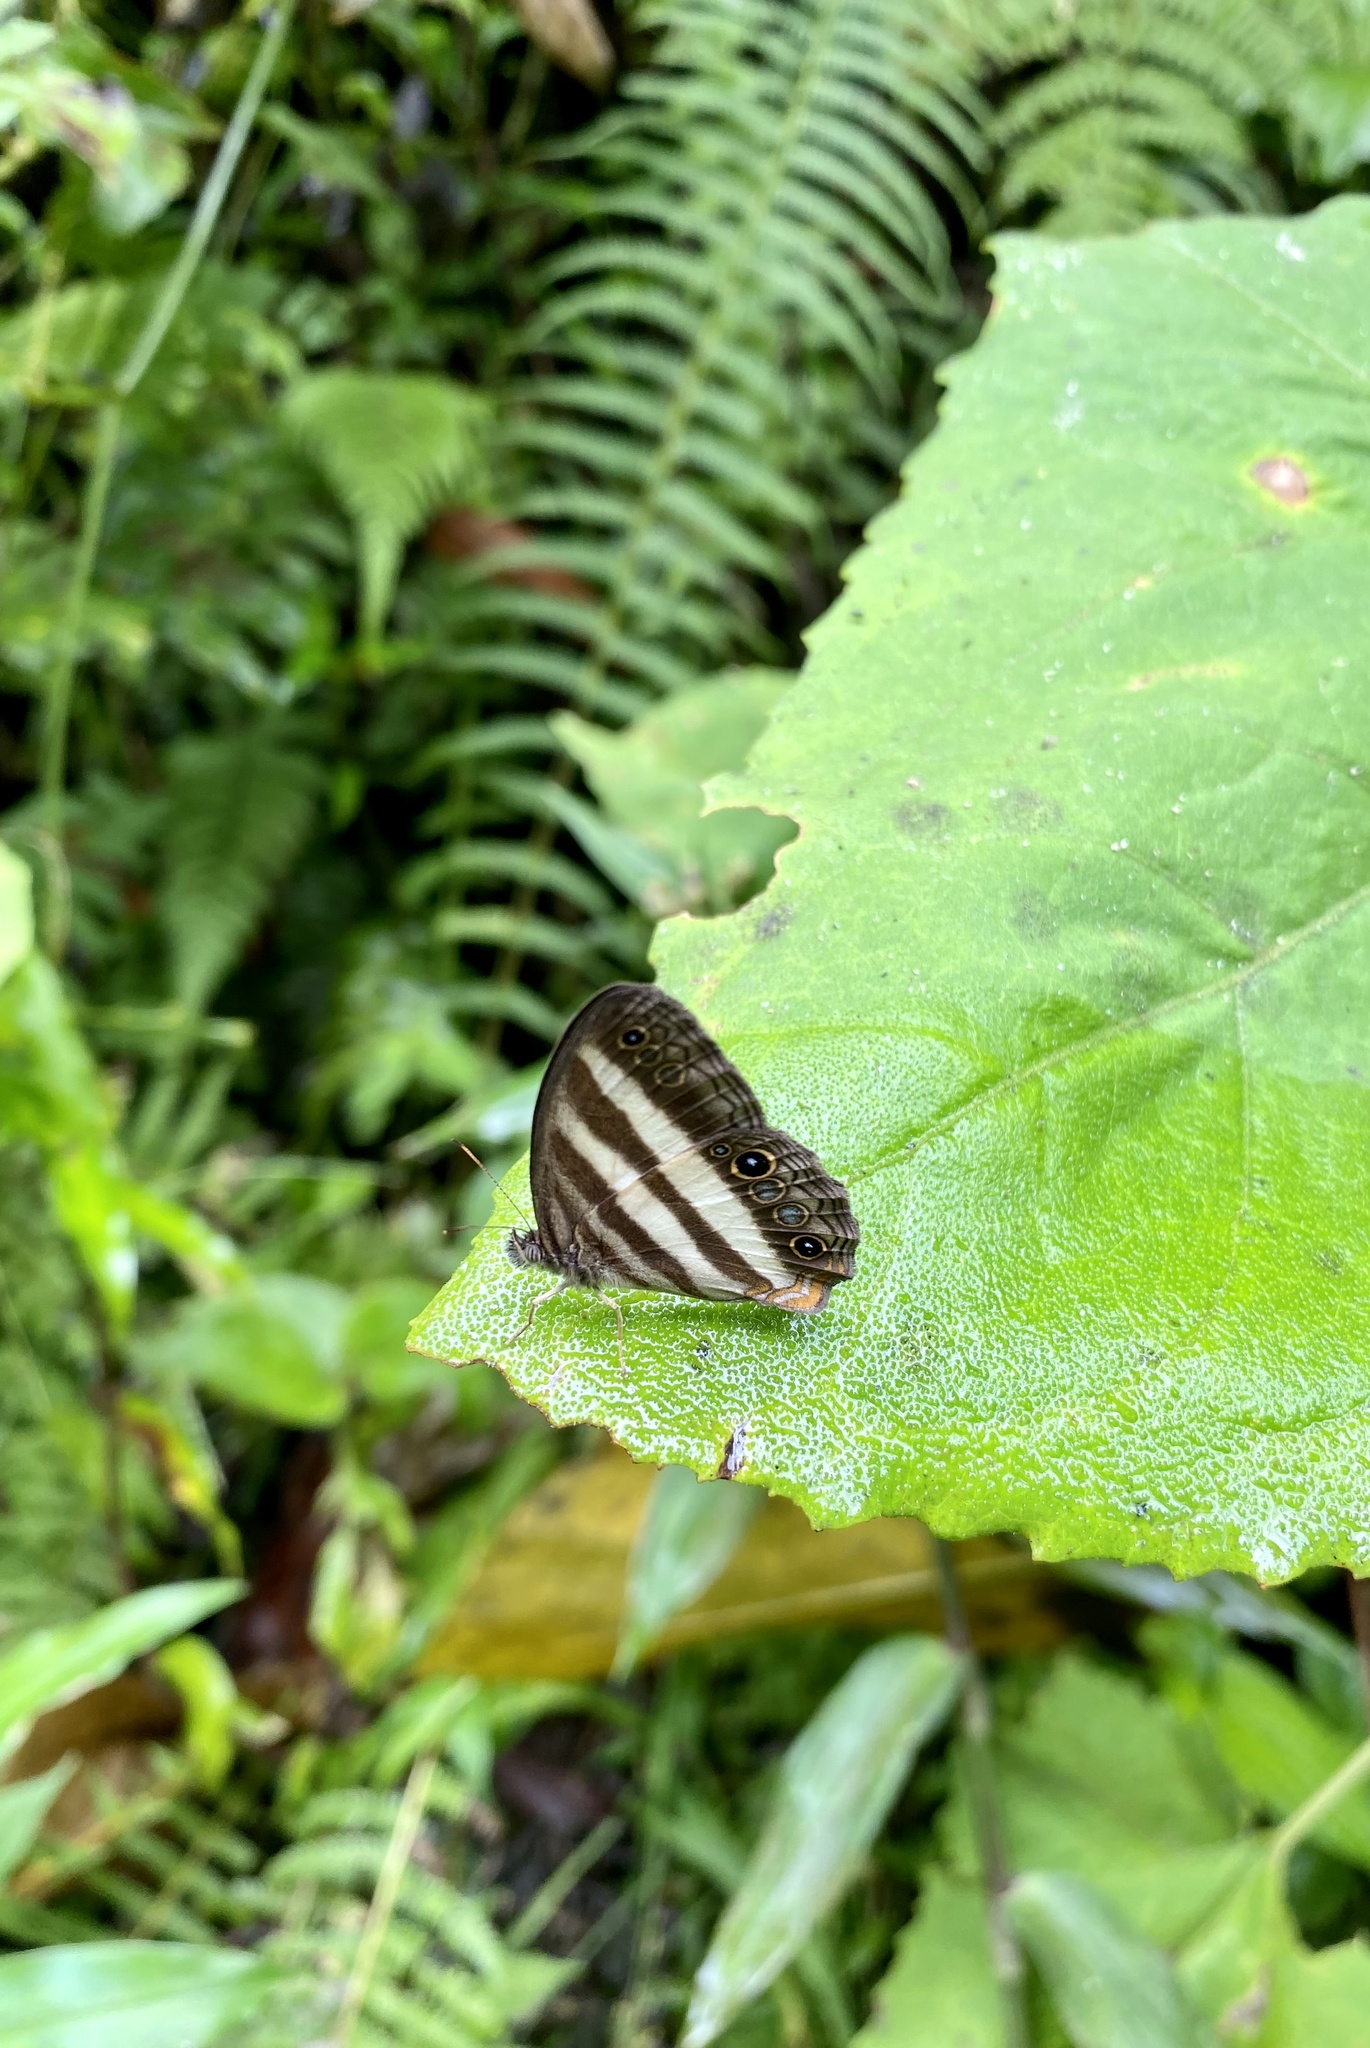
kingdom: Animalia
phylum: Arthropoda
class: Insecta
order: Lepidoptera
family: Nymphalidae
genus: Pareuptychia
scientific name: Pareuptychia hesione
